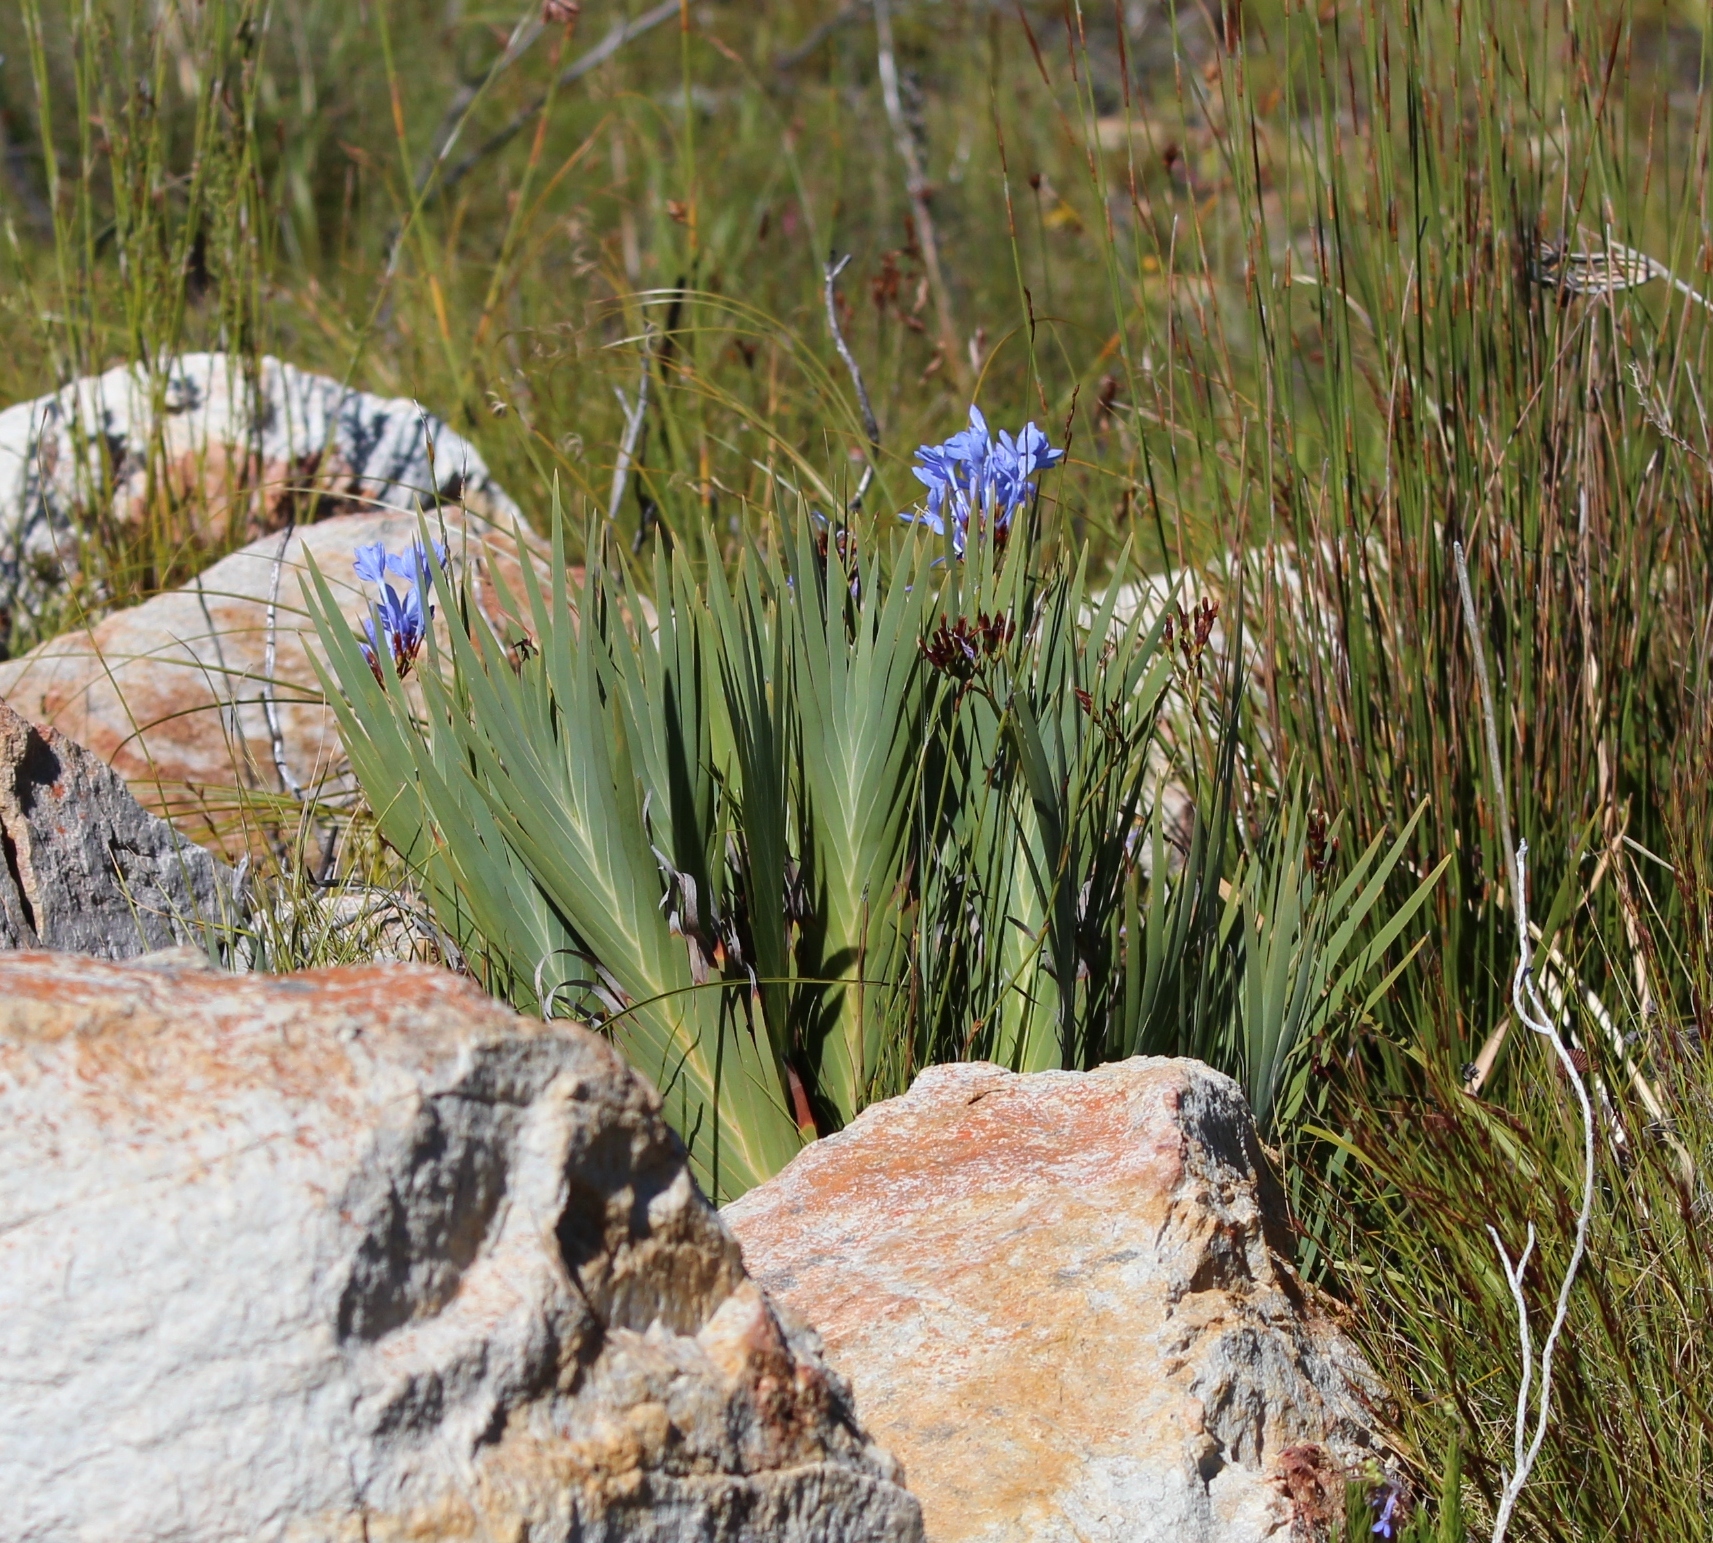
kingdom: Plantae
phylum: Tracheophyta
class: Liliopsida
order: Asparagales
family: Iridaceae
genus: Nivenia
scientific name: Nivenia stokoei
